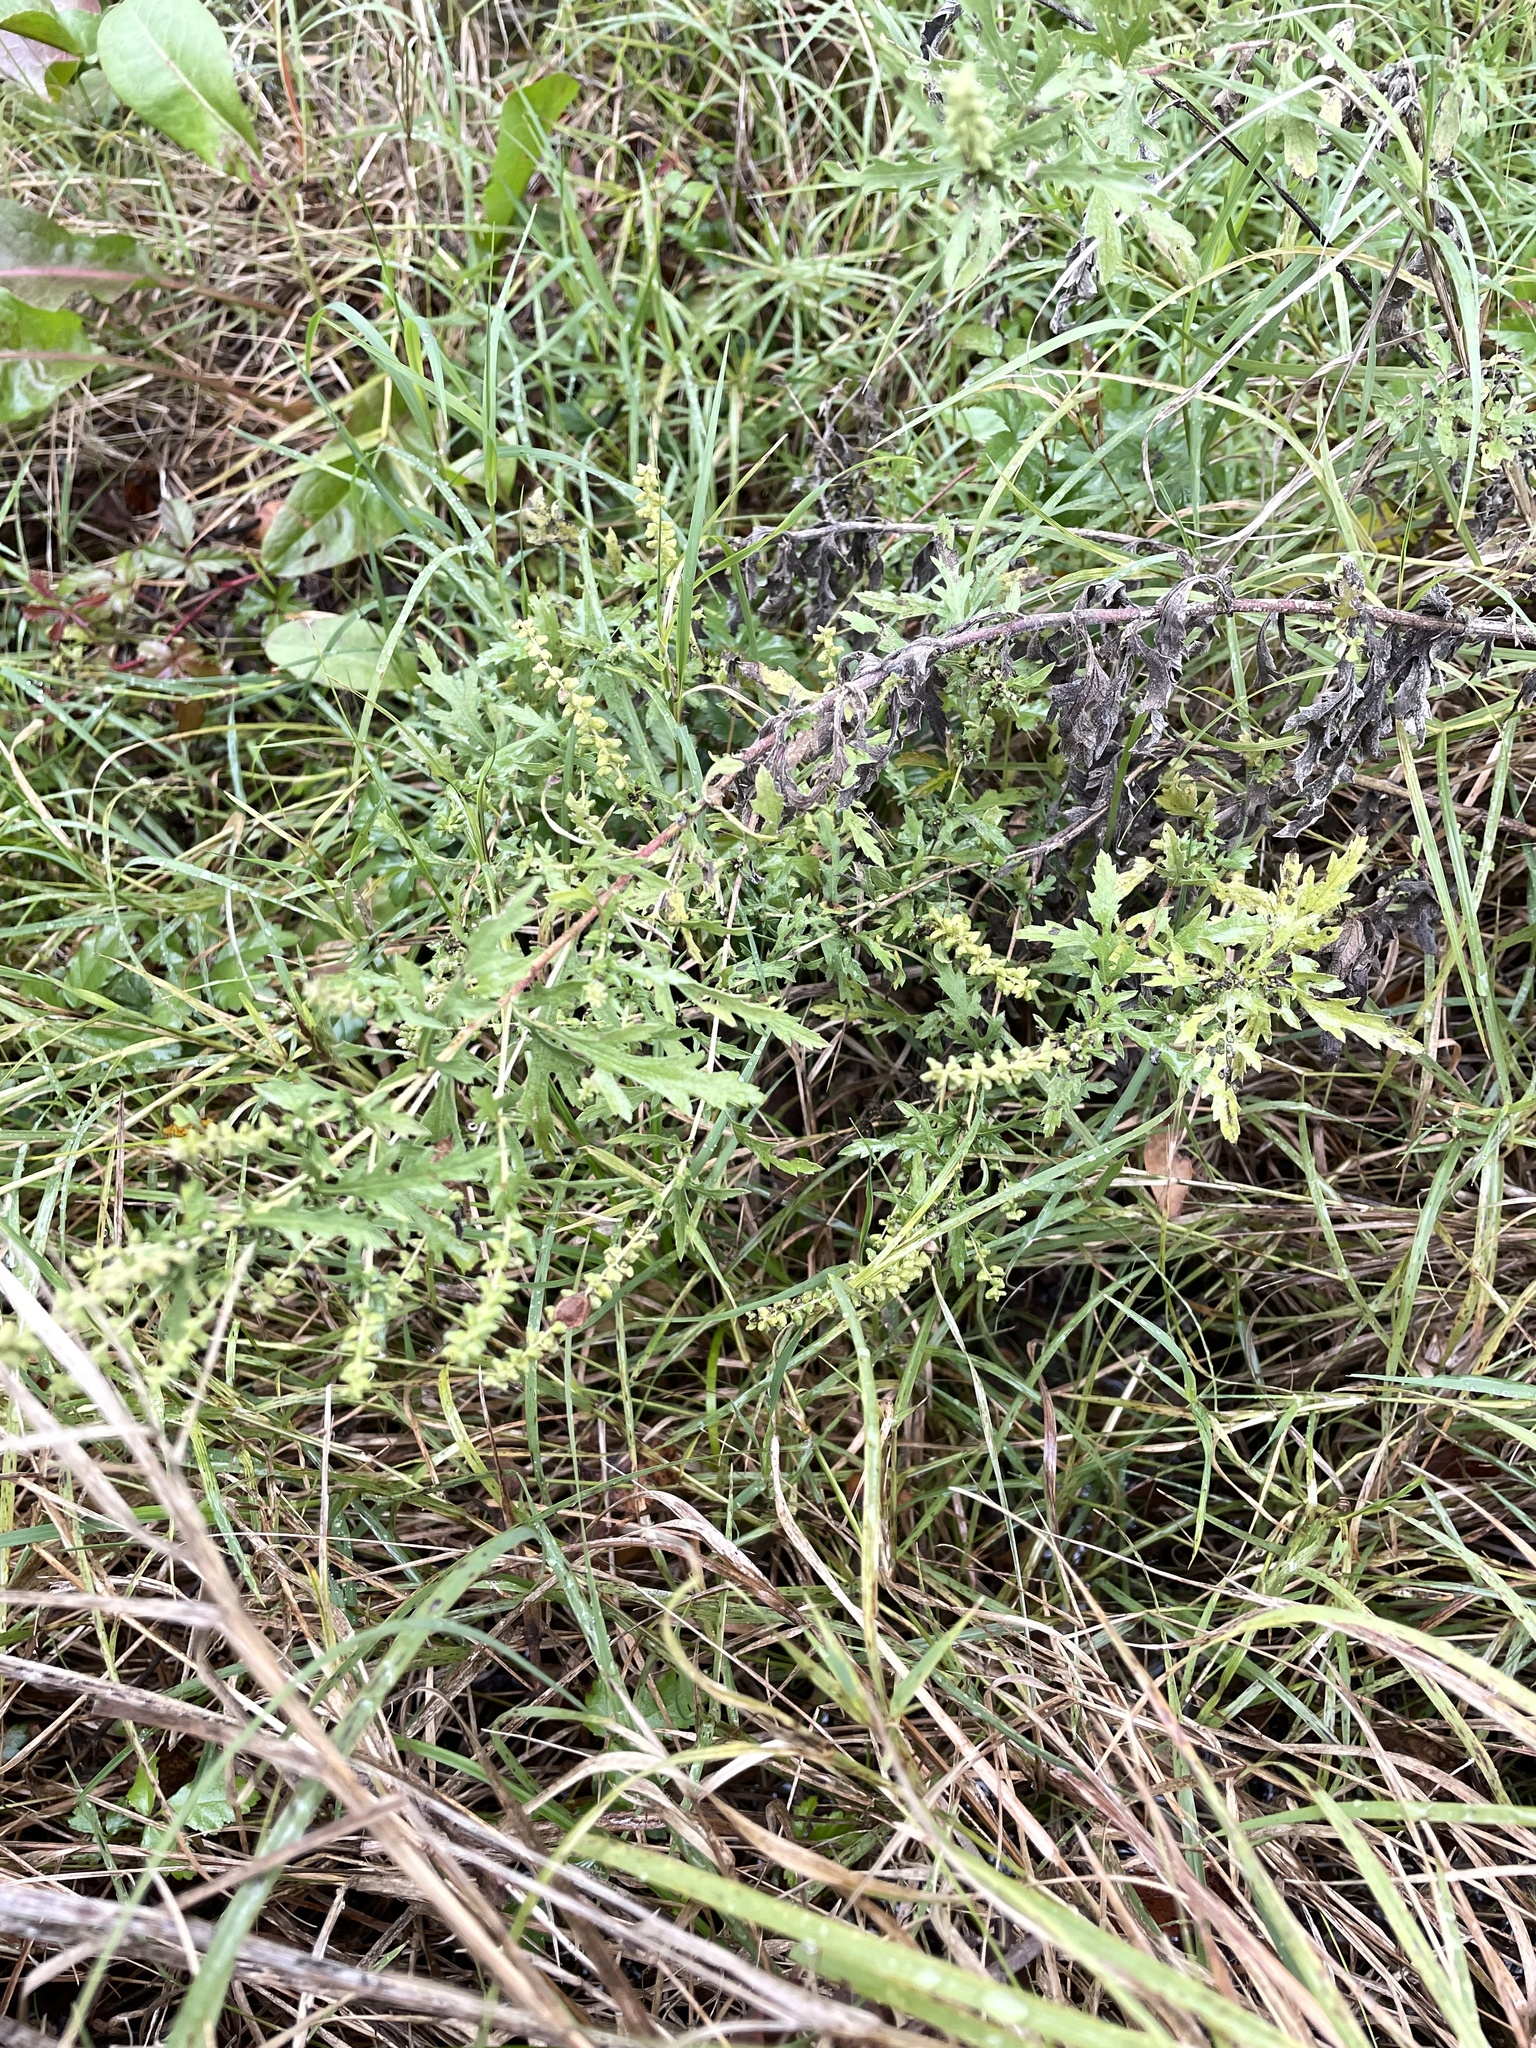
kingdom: Plantae
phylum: Tracheophyta
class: Magnoliopsida
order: Asterales
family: Asteraceae
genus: Ambrosia
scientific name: Ambrosia psilostachya
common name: Perennial ragweed
